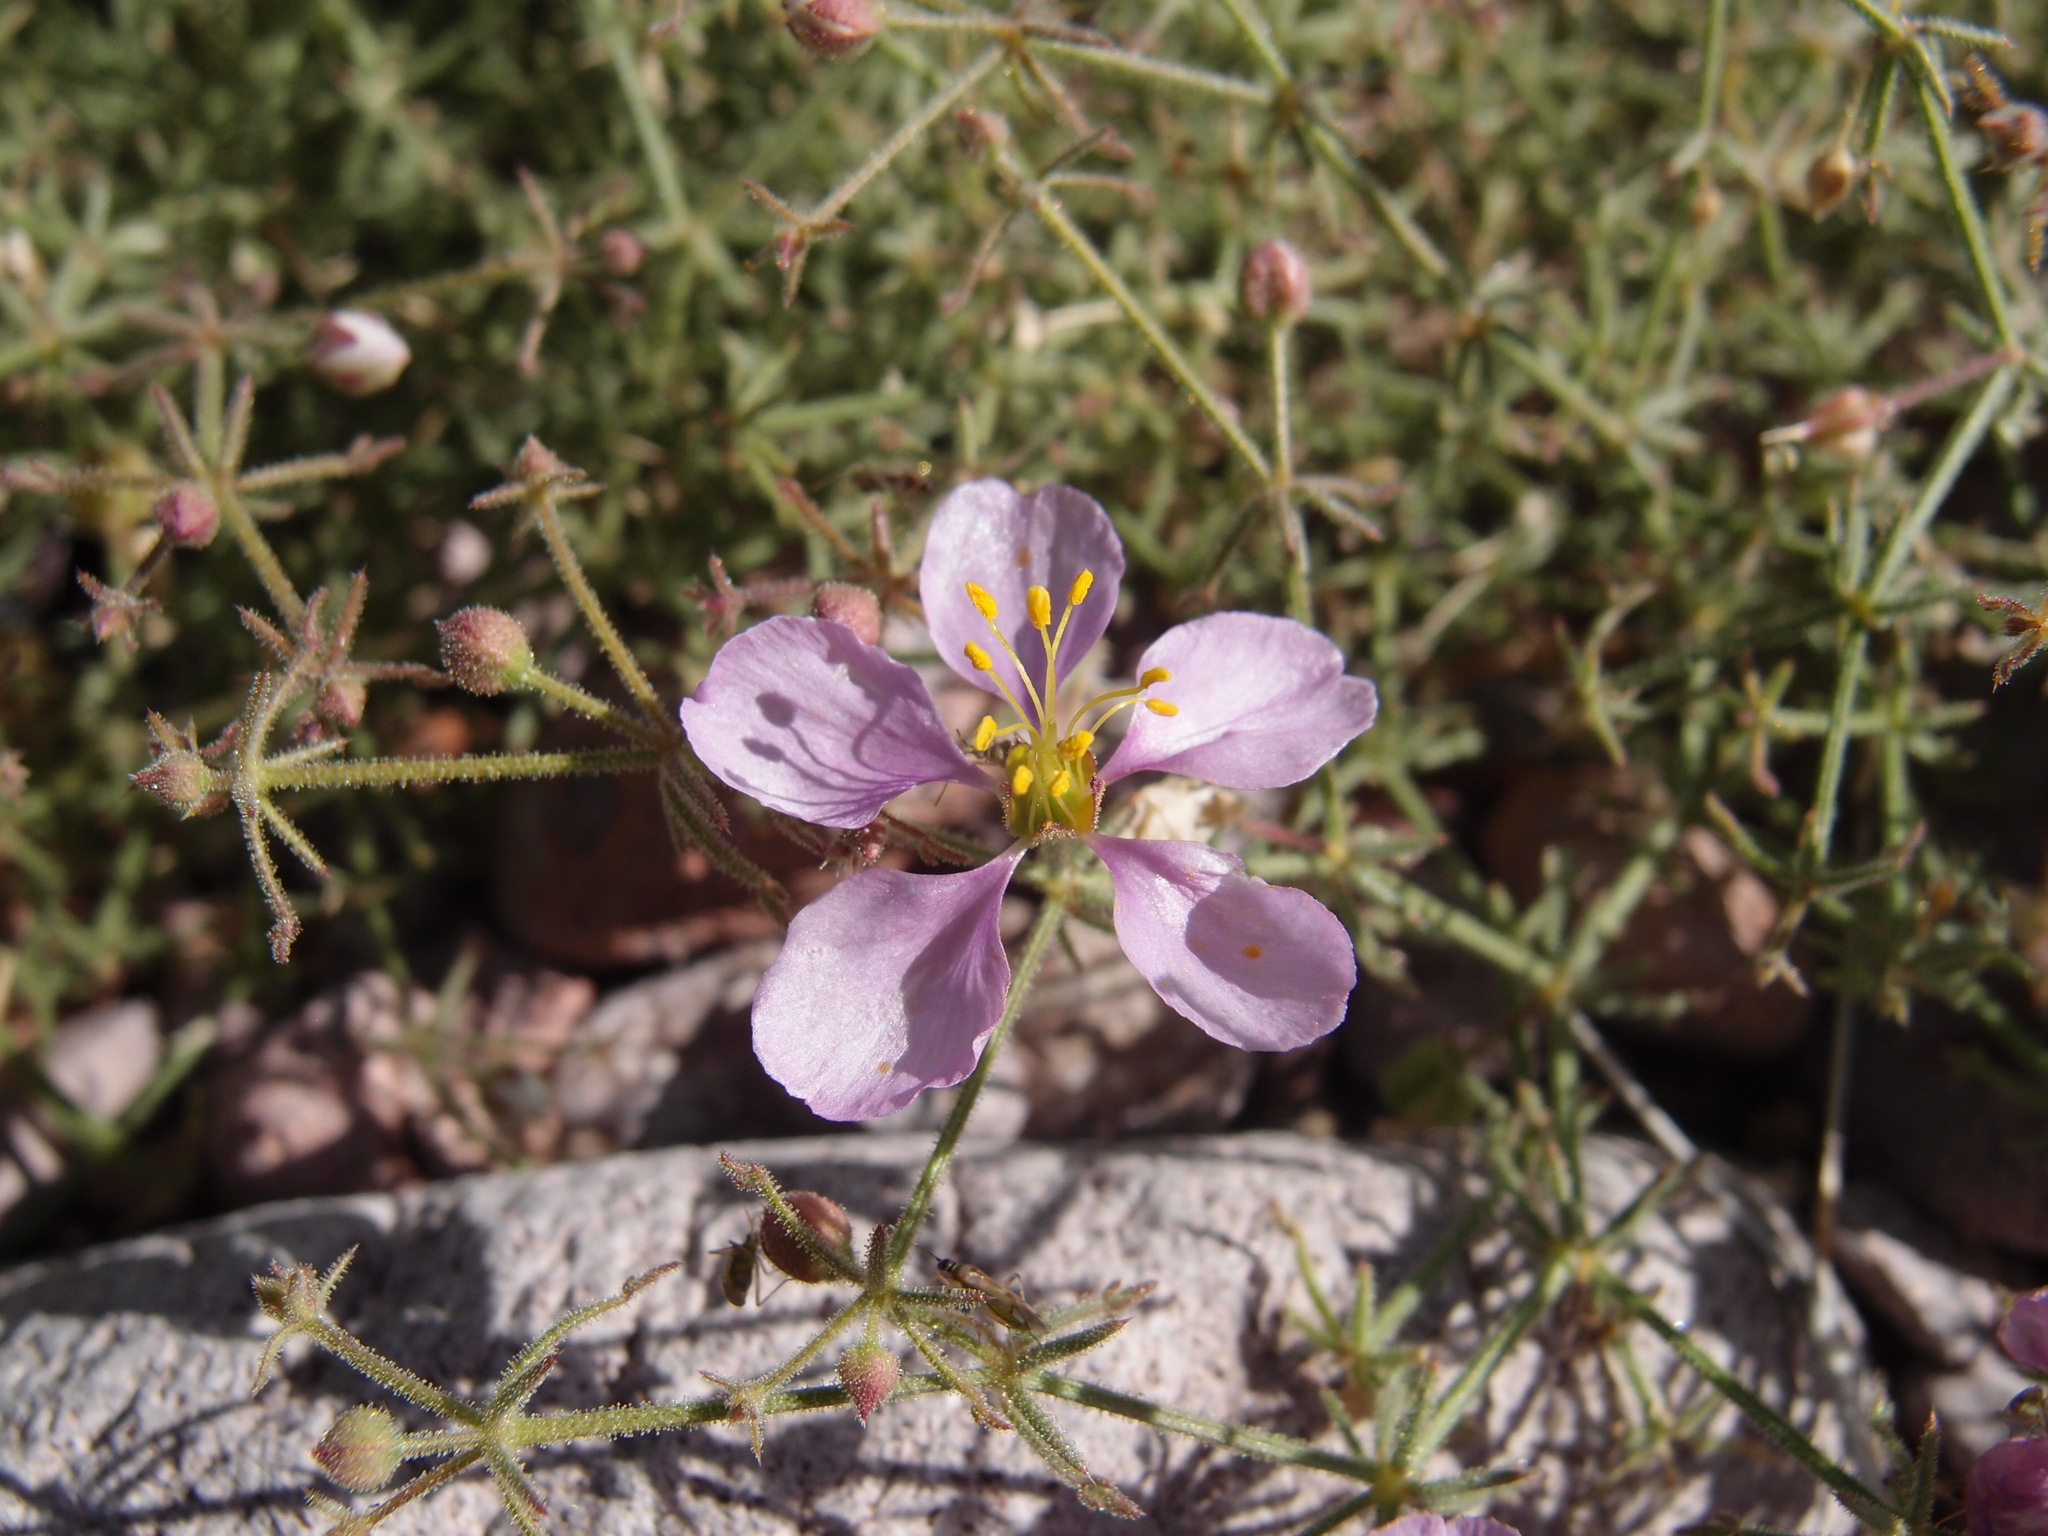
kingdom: Plantae
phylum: Tracheophyta
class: Magnoliopsida
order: Zygophyllales
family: Zygophyllaceae
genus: Fagonia
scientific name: Fagonia laevis
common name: California fagonbush
